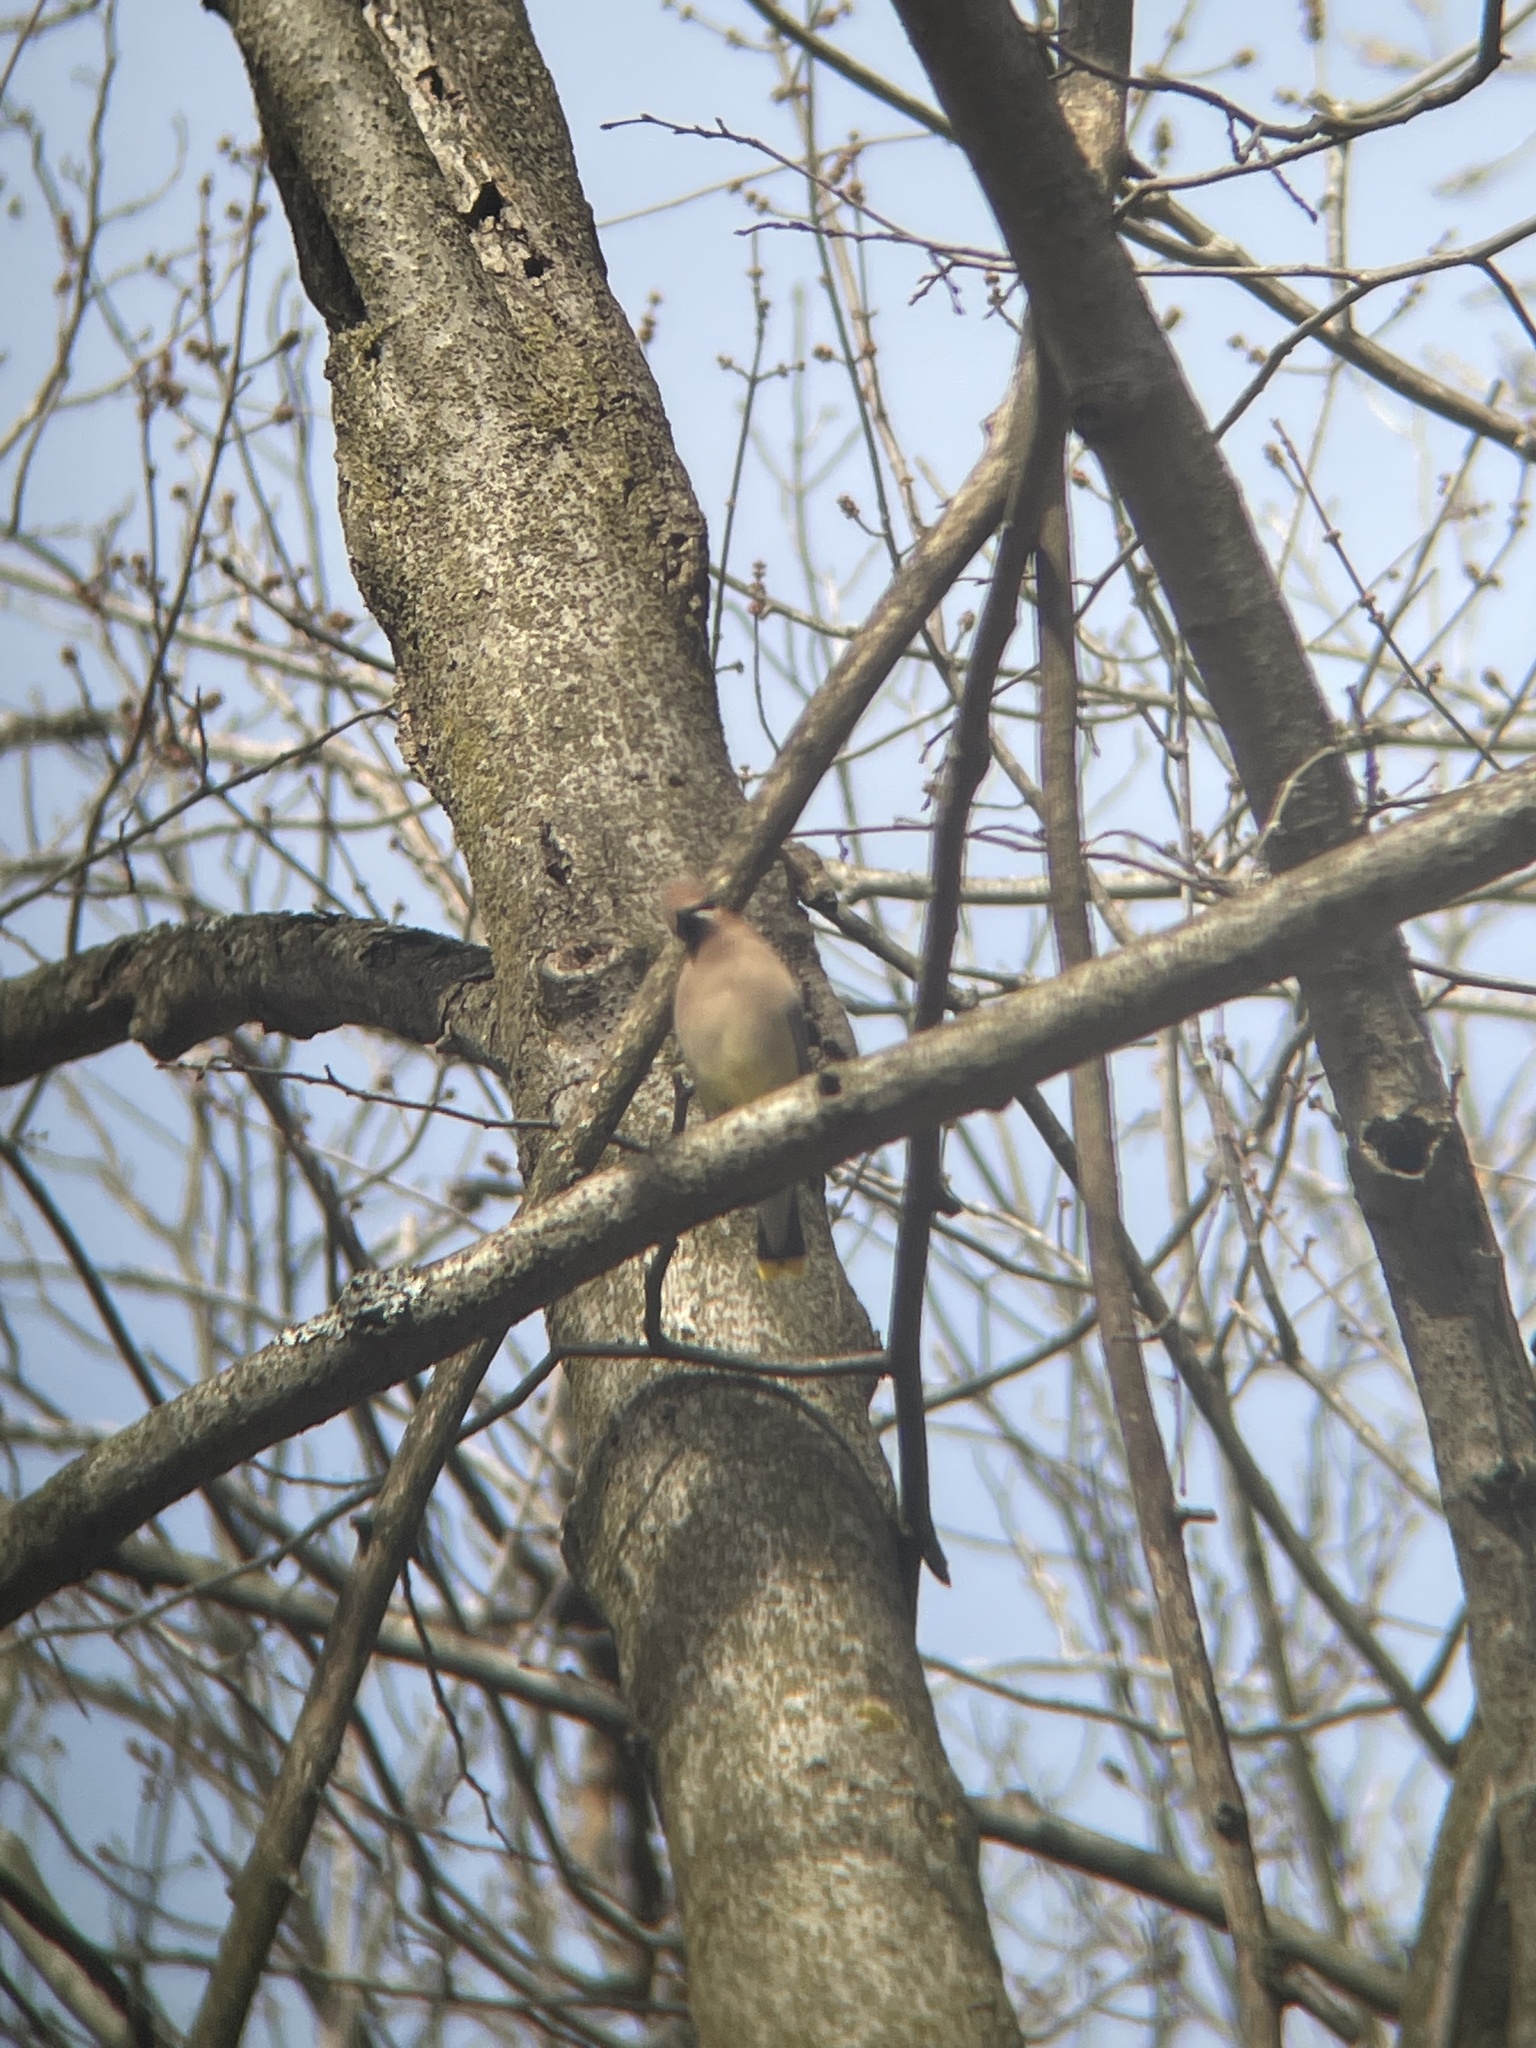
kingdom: Animalia
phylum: Chordata
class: Aves
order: Passeriformes
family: Bombycillidae
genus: Bombycilla
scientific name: Bombycilla cedrorum
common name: Cedar waxwing
